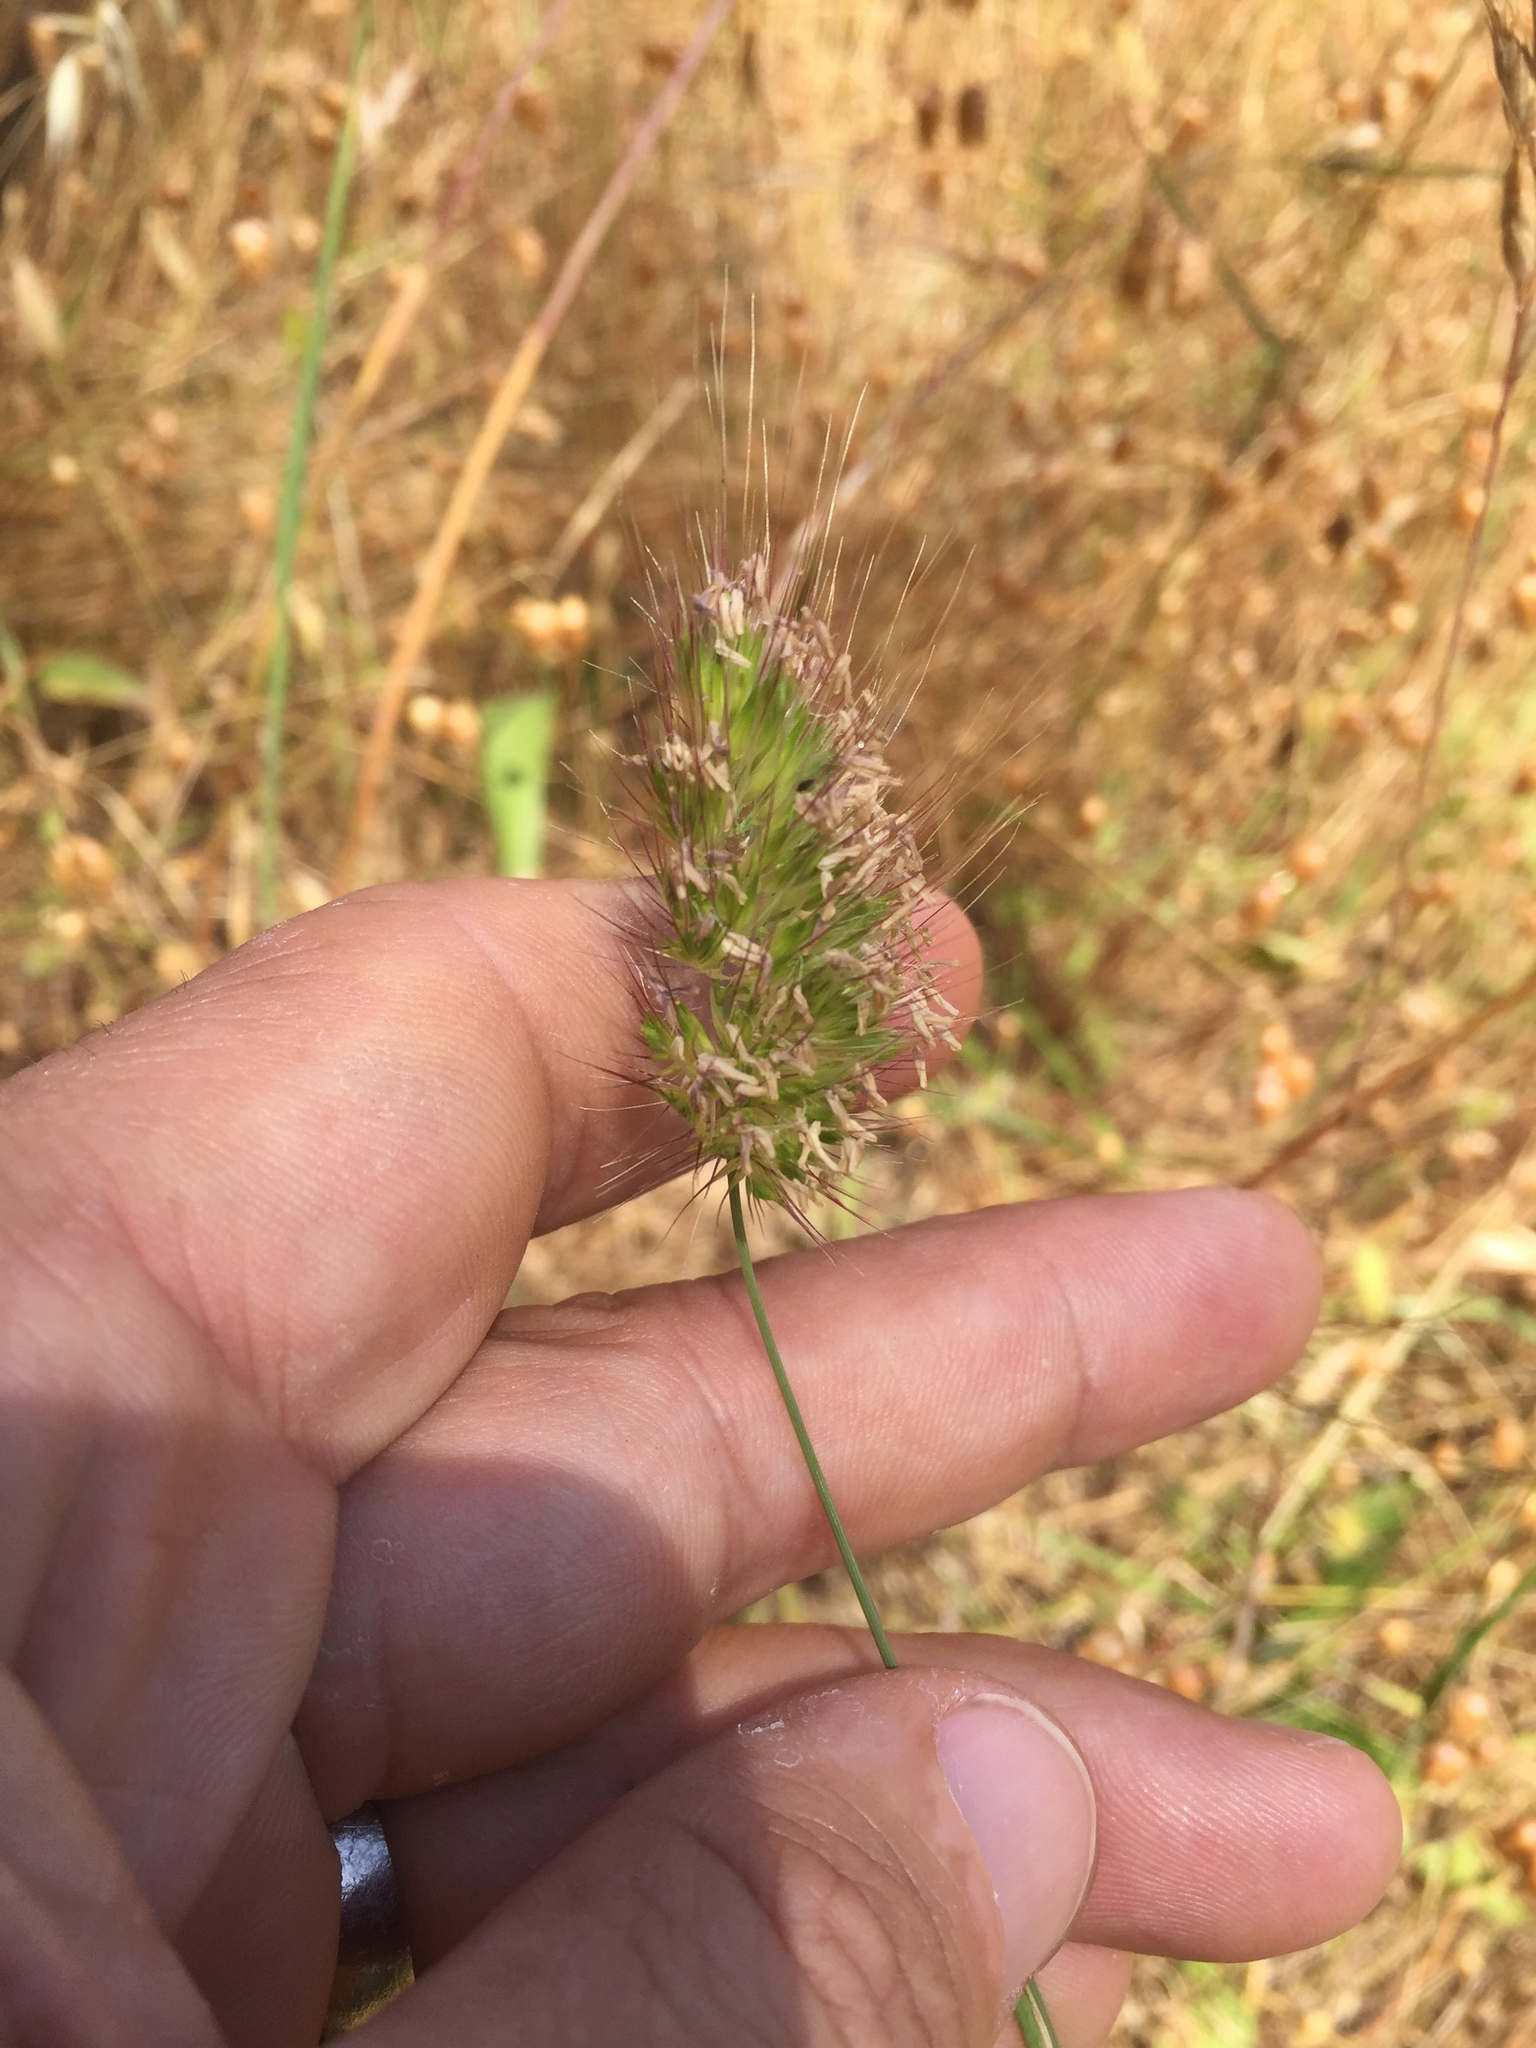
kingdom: Plantae
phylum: Tracheophyta
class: Liliopsida
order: Poales
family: Poaceae
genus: Cynosurus
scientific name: Cynosurus echinatus
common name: Rough dog's-tail
